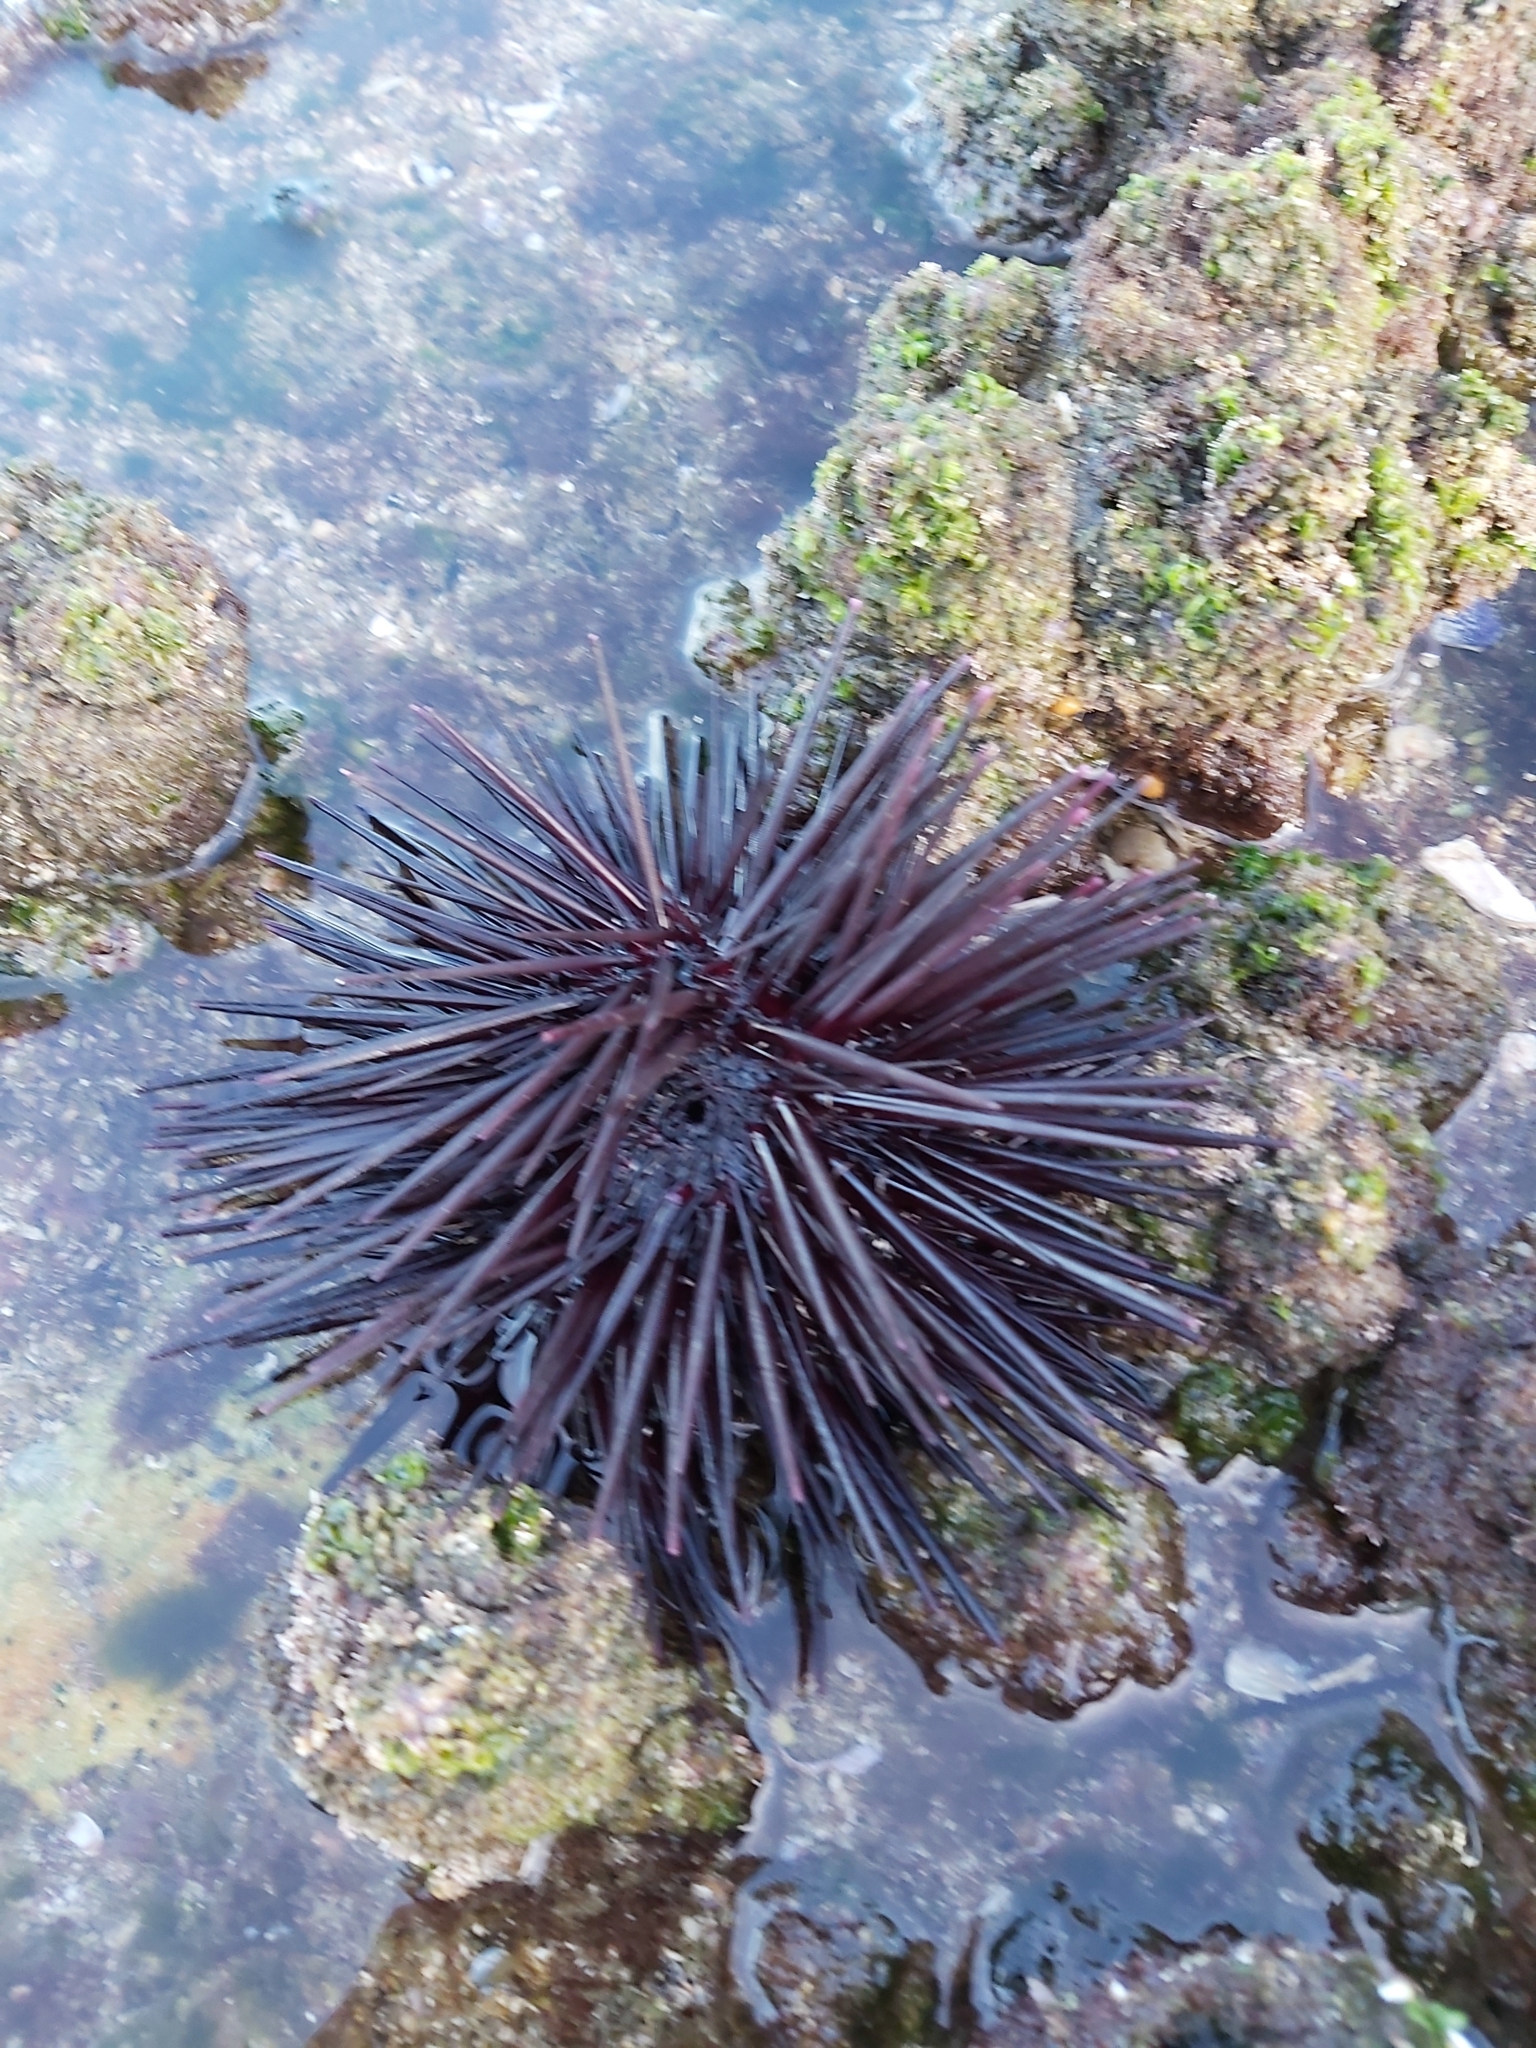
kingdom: Animalia
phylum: Echinodermata
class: Echinoidea
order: Diadematoida
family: Diadematidae
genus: Centrostephanus
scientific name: Centrostephanus rodgersii
